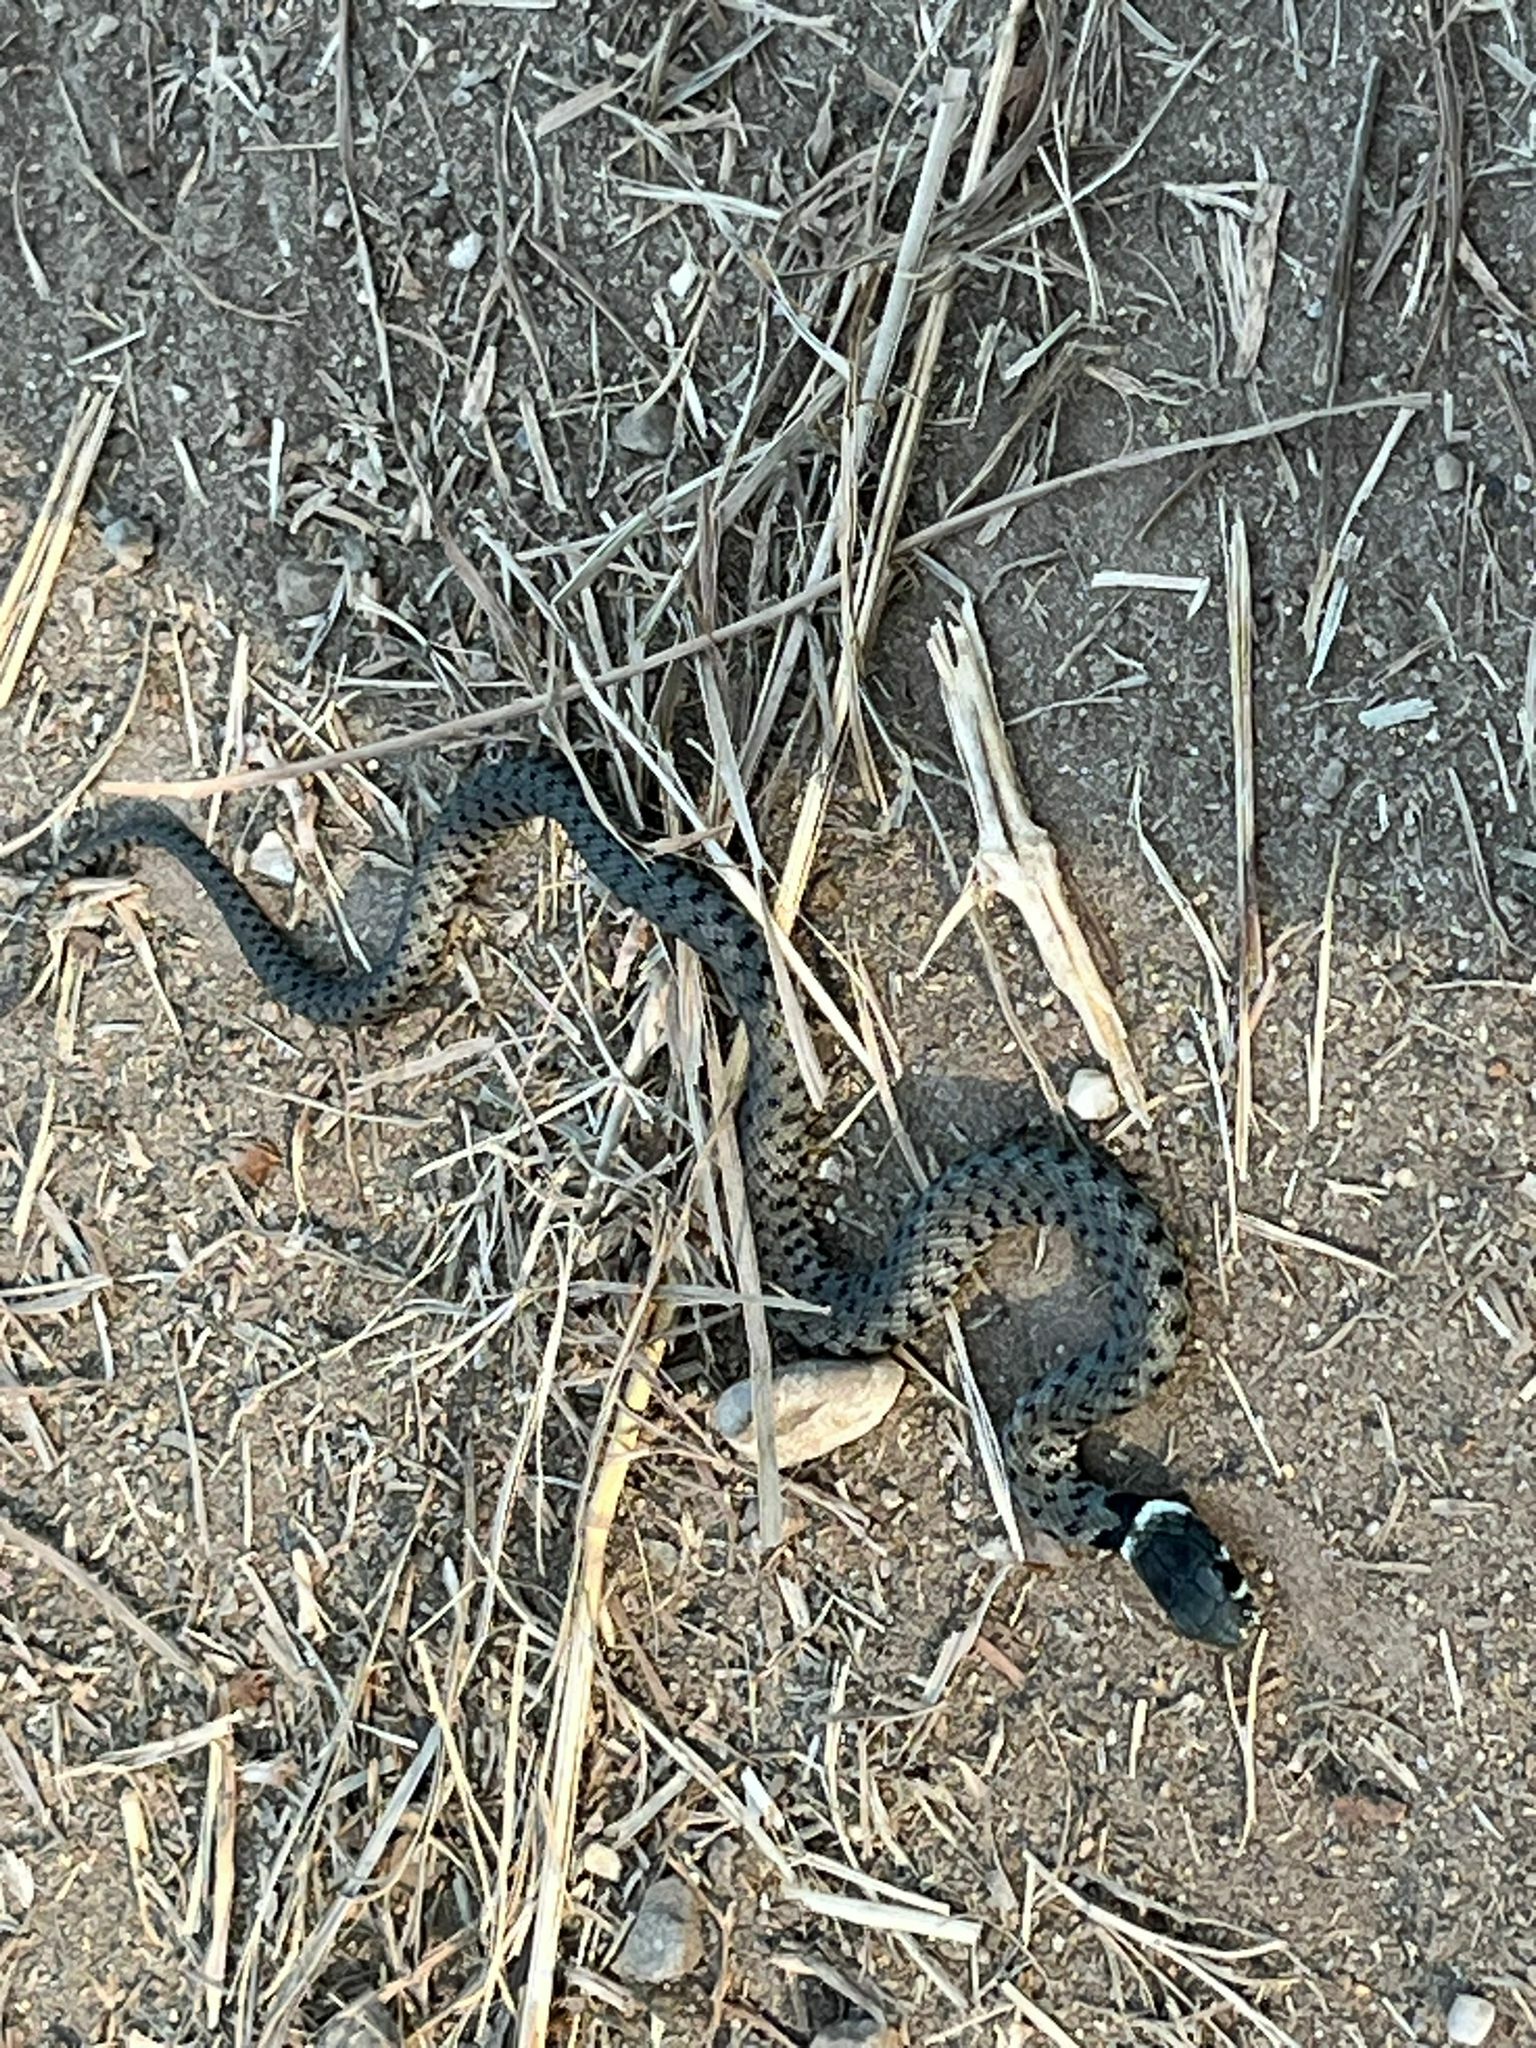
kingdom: Animalia
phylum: Chordata
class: Squamata
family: Colubridae
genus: Natrix
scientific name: Natrix helvetica
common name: Banded grass snake
